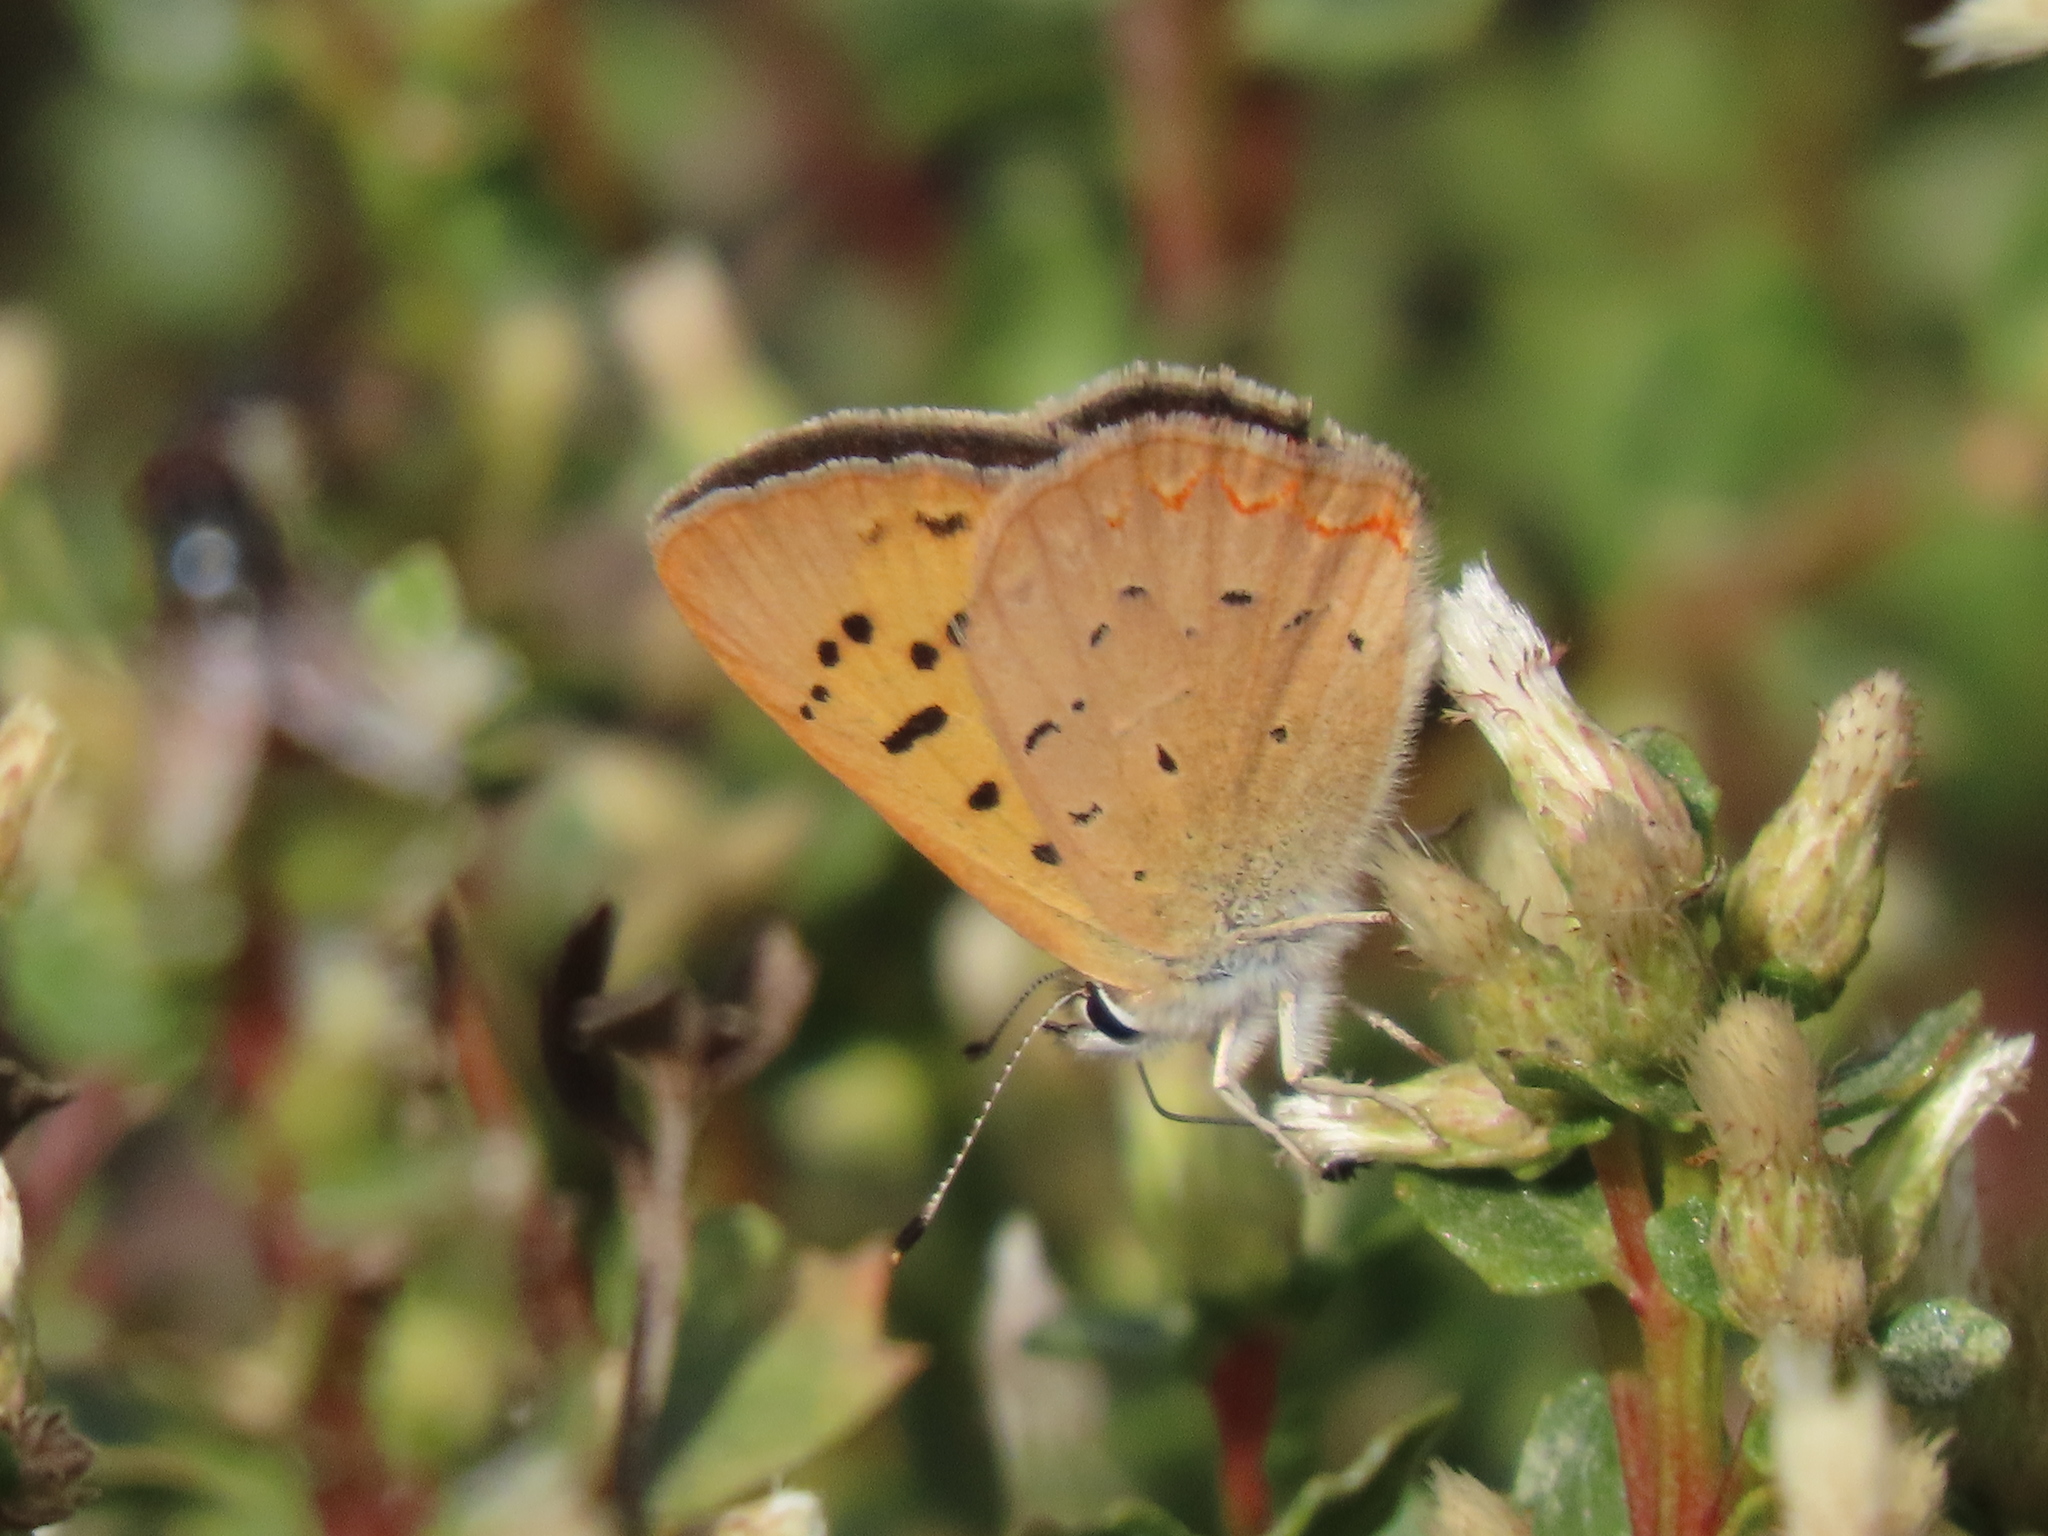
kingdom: Animalia
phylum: Arthropoda
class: Insecta
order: Lepidoptera
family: Lycaenidae
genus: Tharsalea
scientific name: Tharsalea helloides
